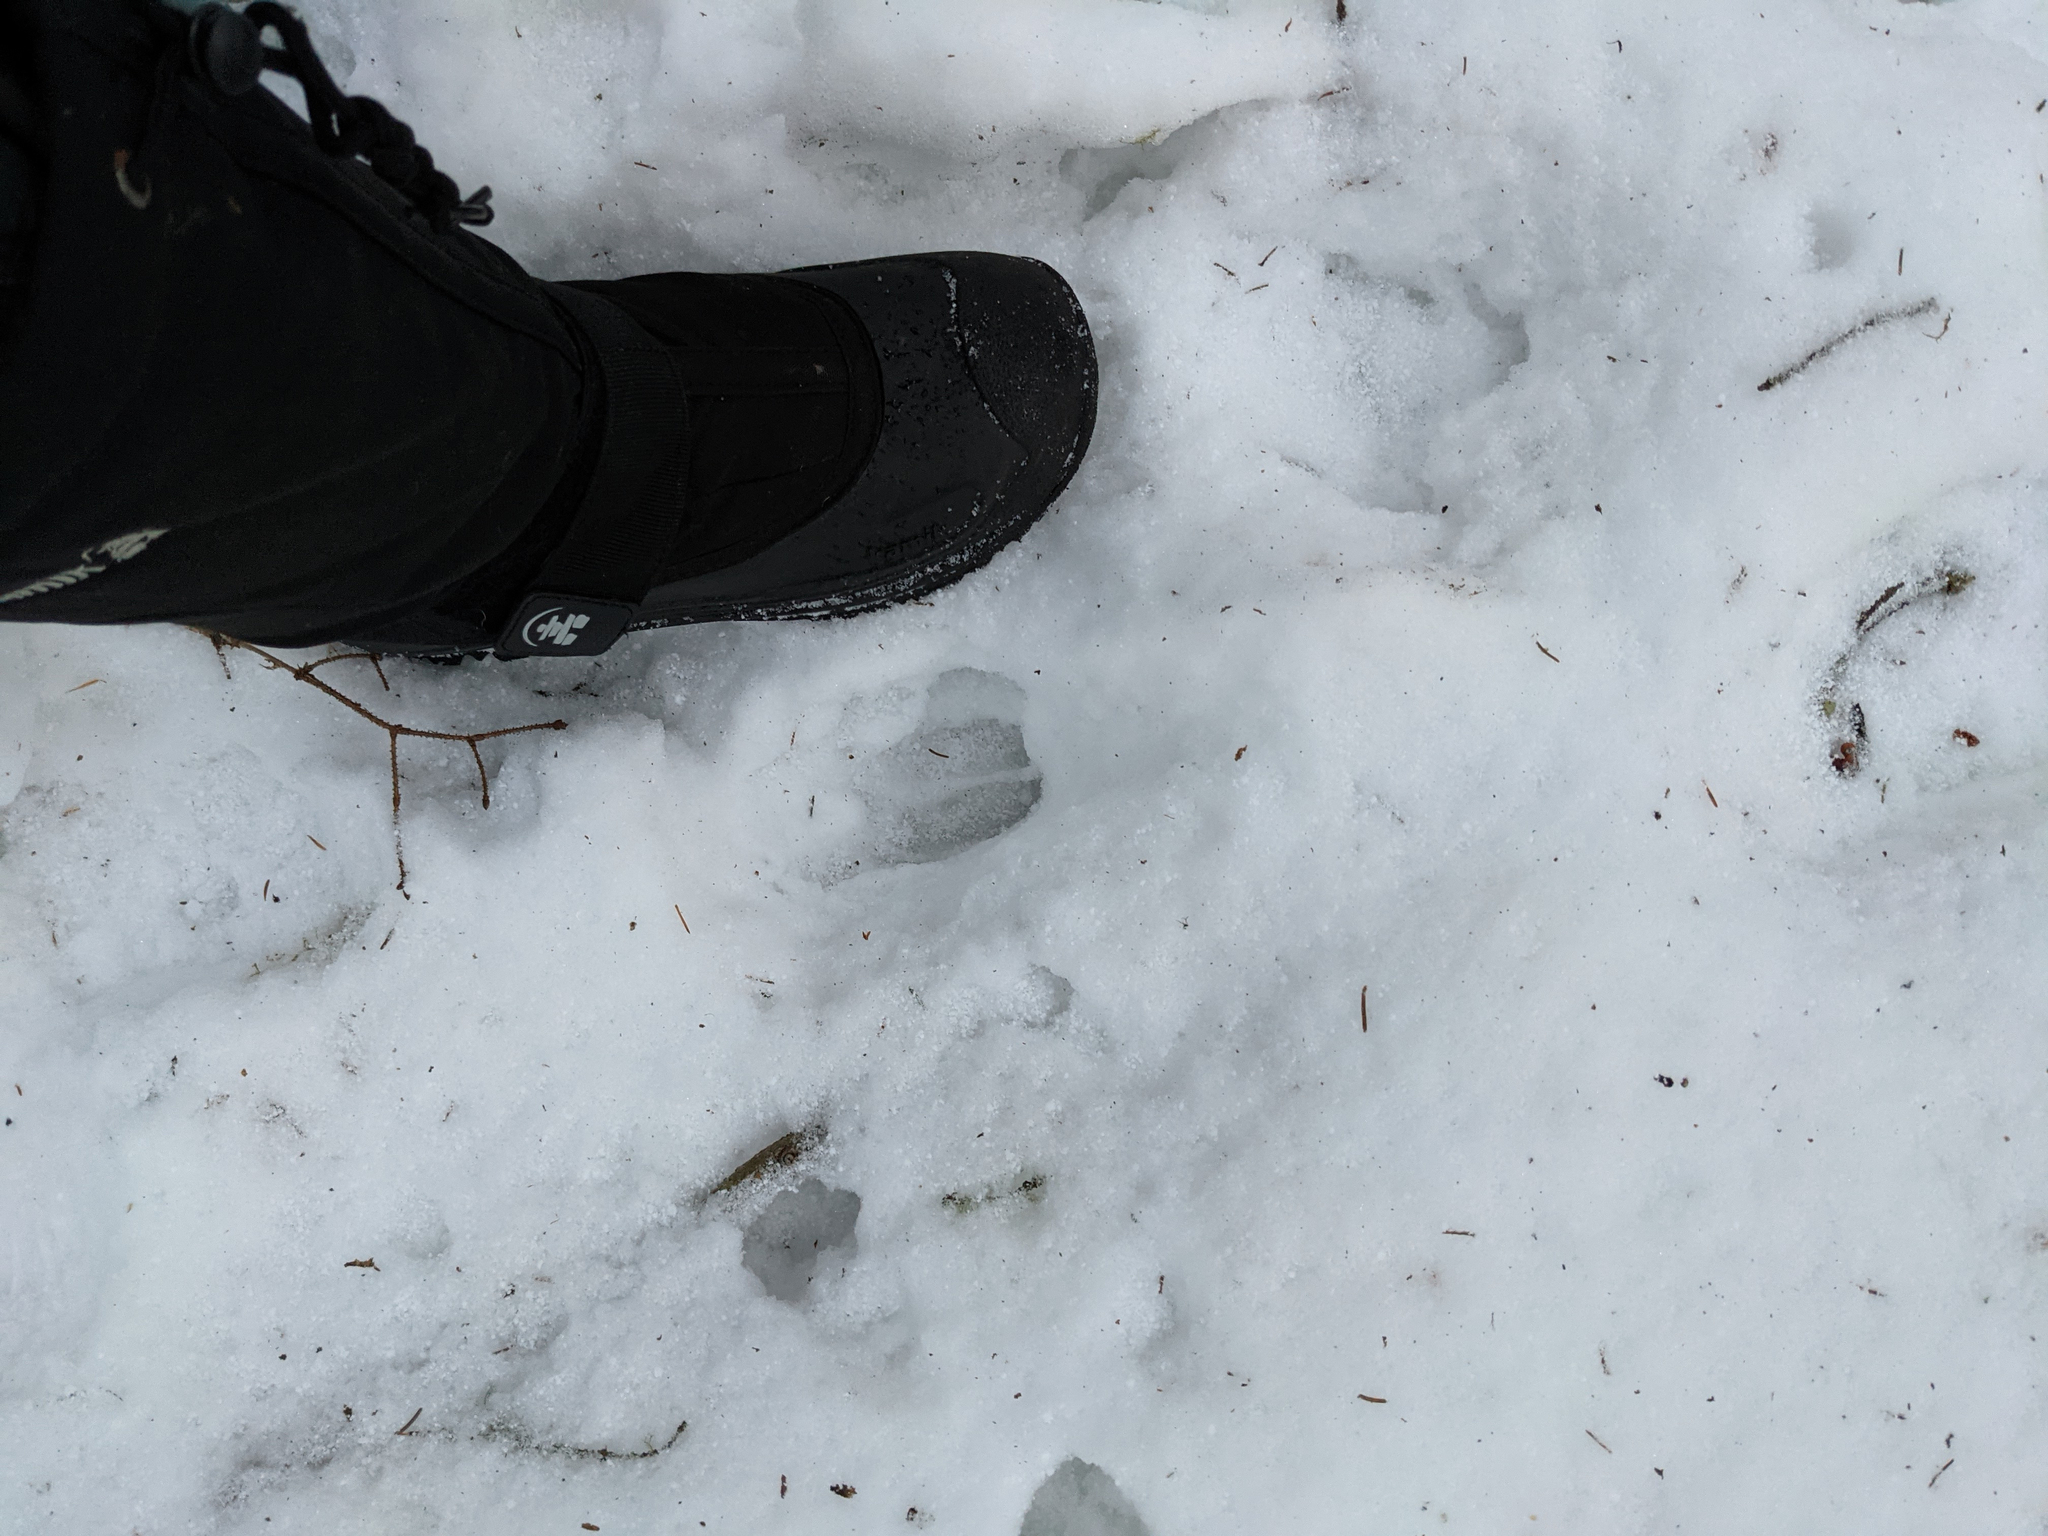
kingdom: Animalia
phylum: Chordata
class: Mammalia
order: Artiodactyla
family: Cervidae
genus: Odocoileus
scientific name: Odocoileus virginianus
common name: White-tailed deer
